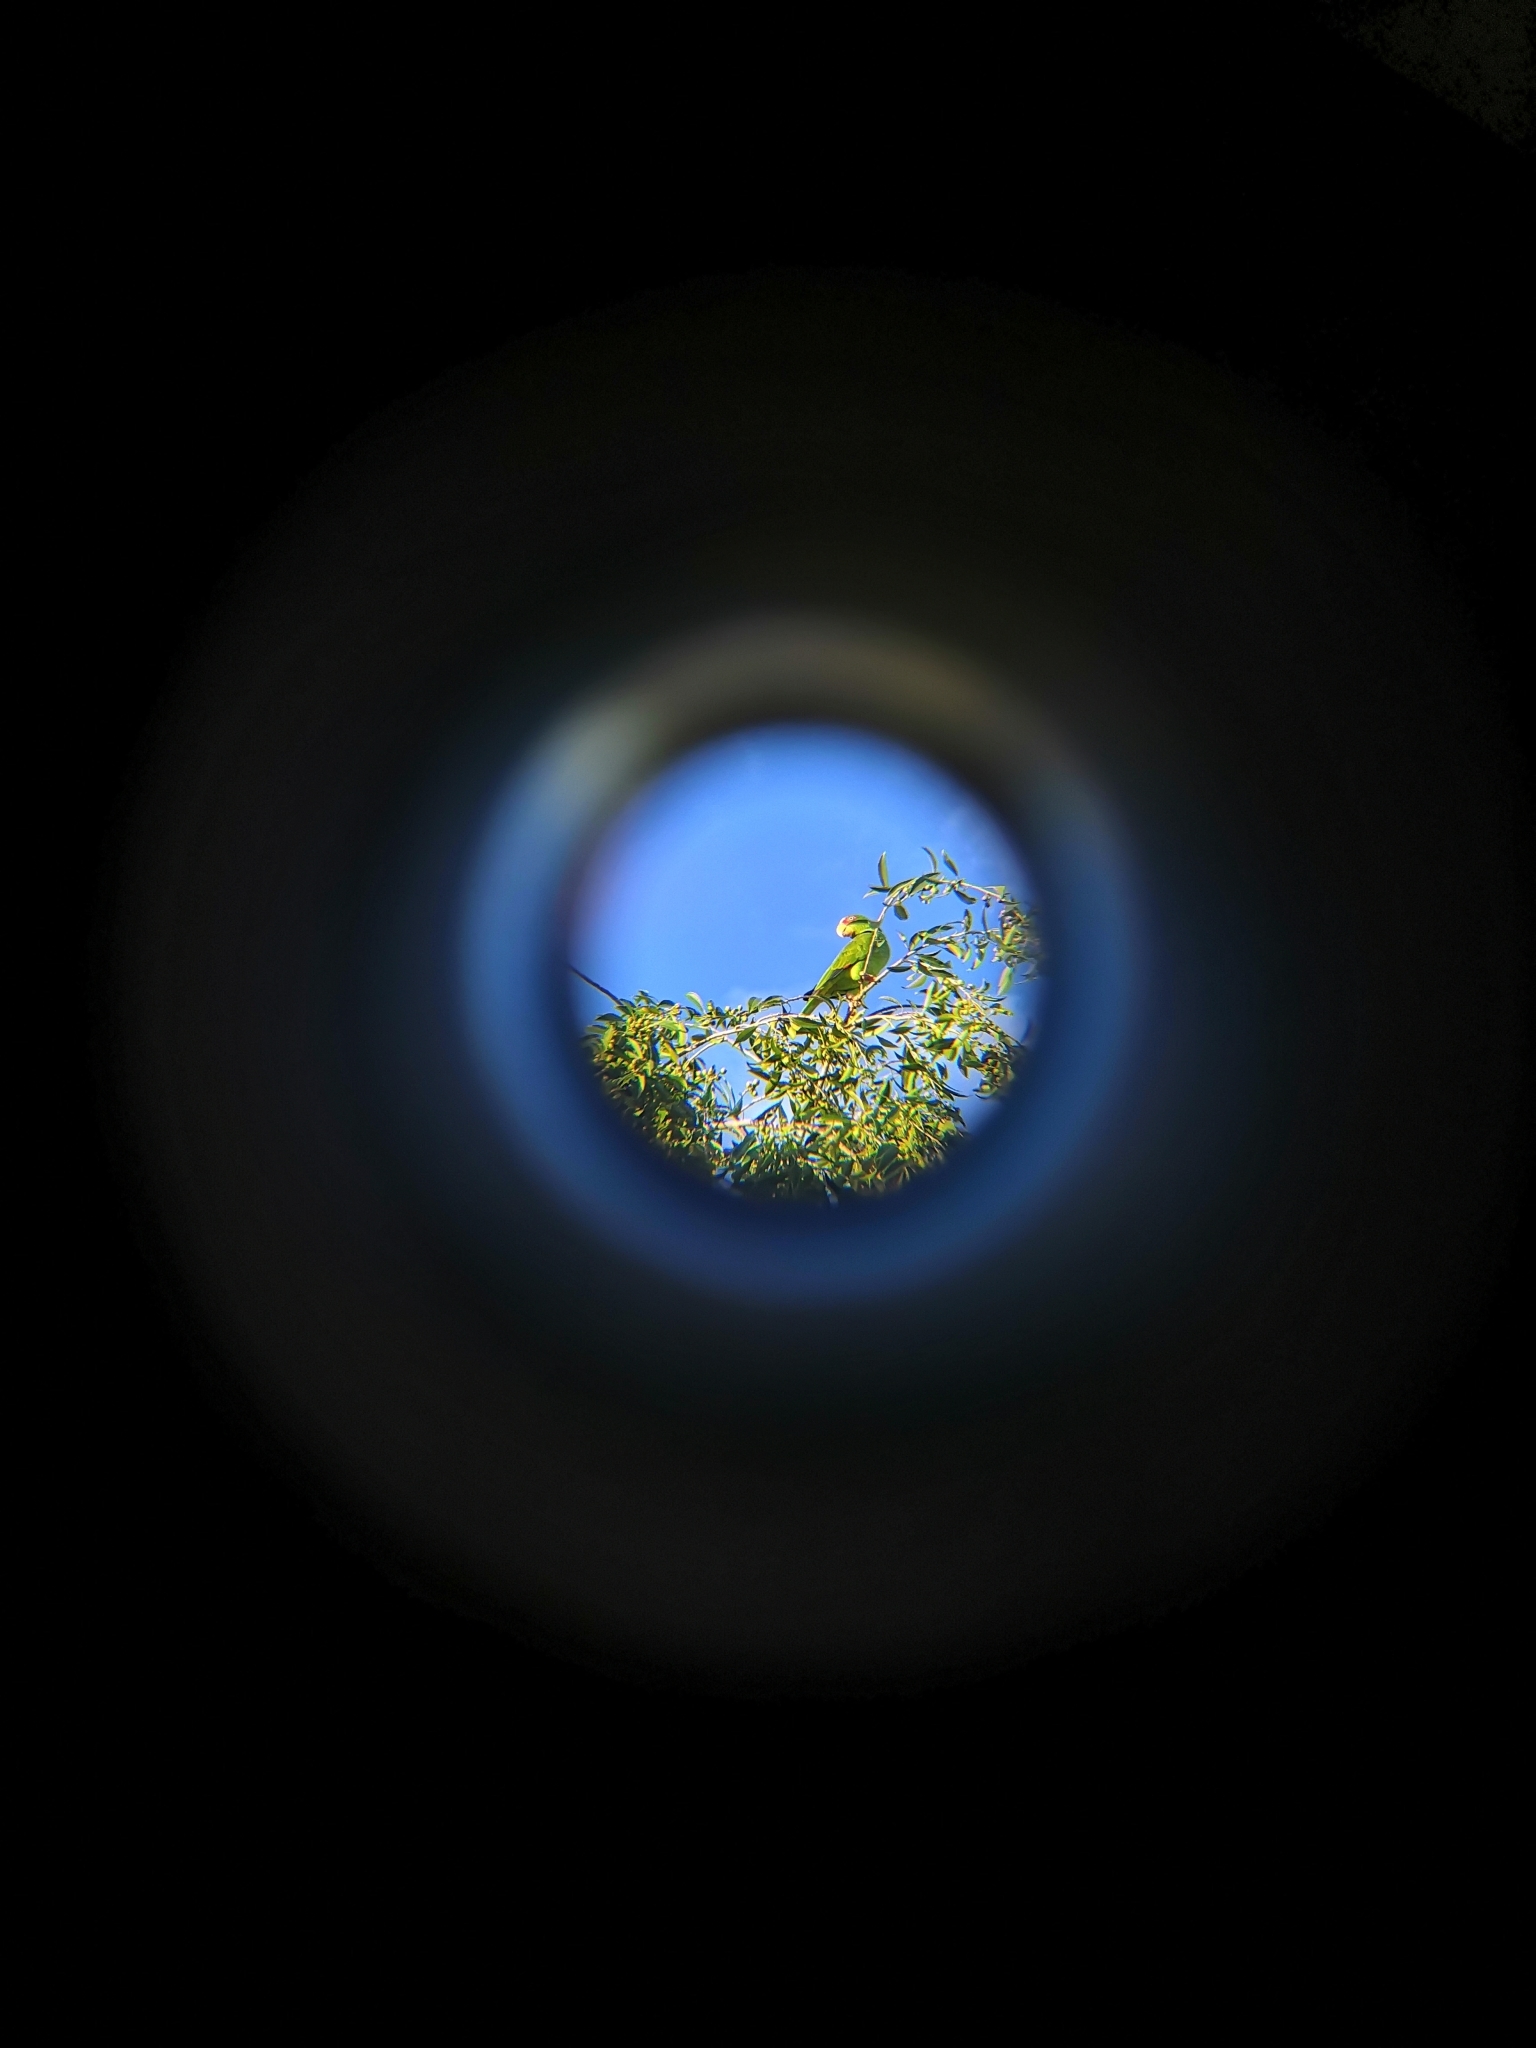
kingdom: Animalia
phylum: Chordata
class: Aves
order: Psittaciformes
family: Psittacidae
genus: Amazona
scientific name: Amazona albifrons
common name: White-fronted amazon
